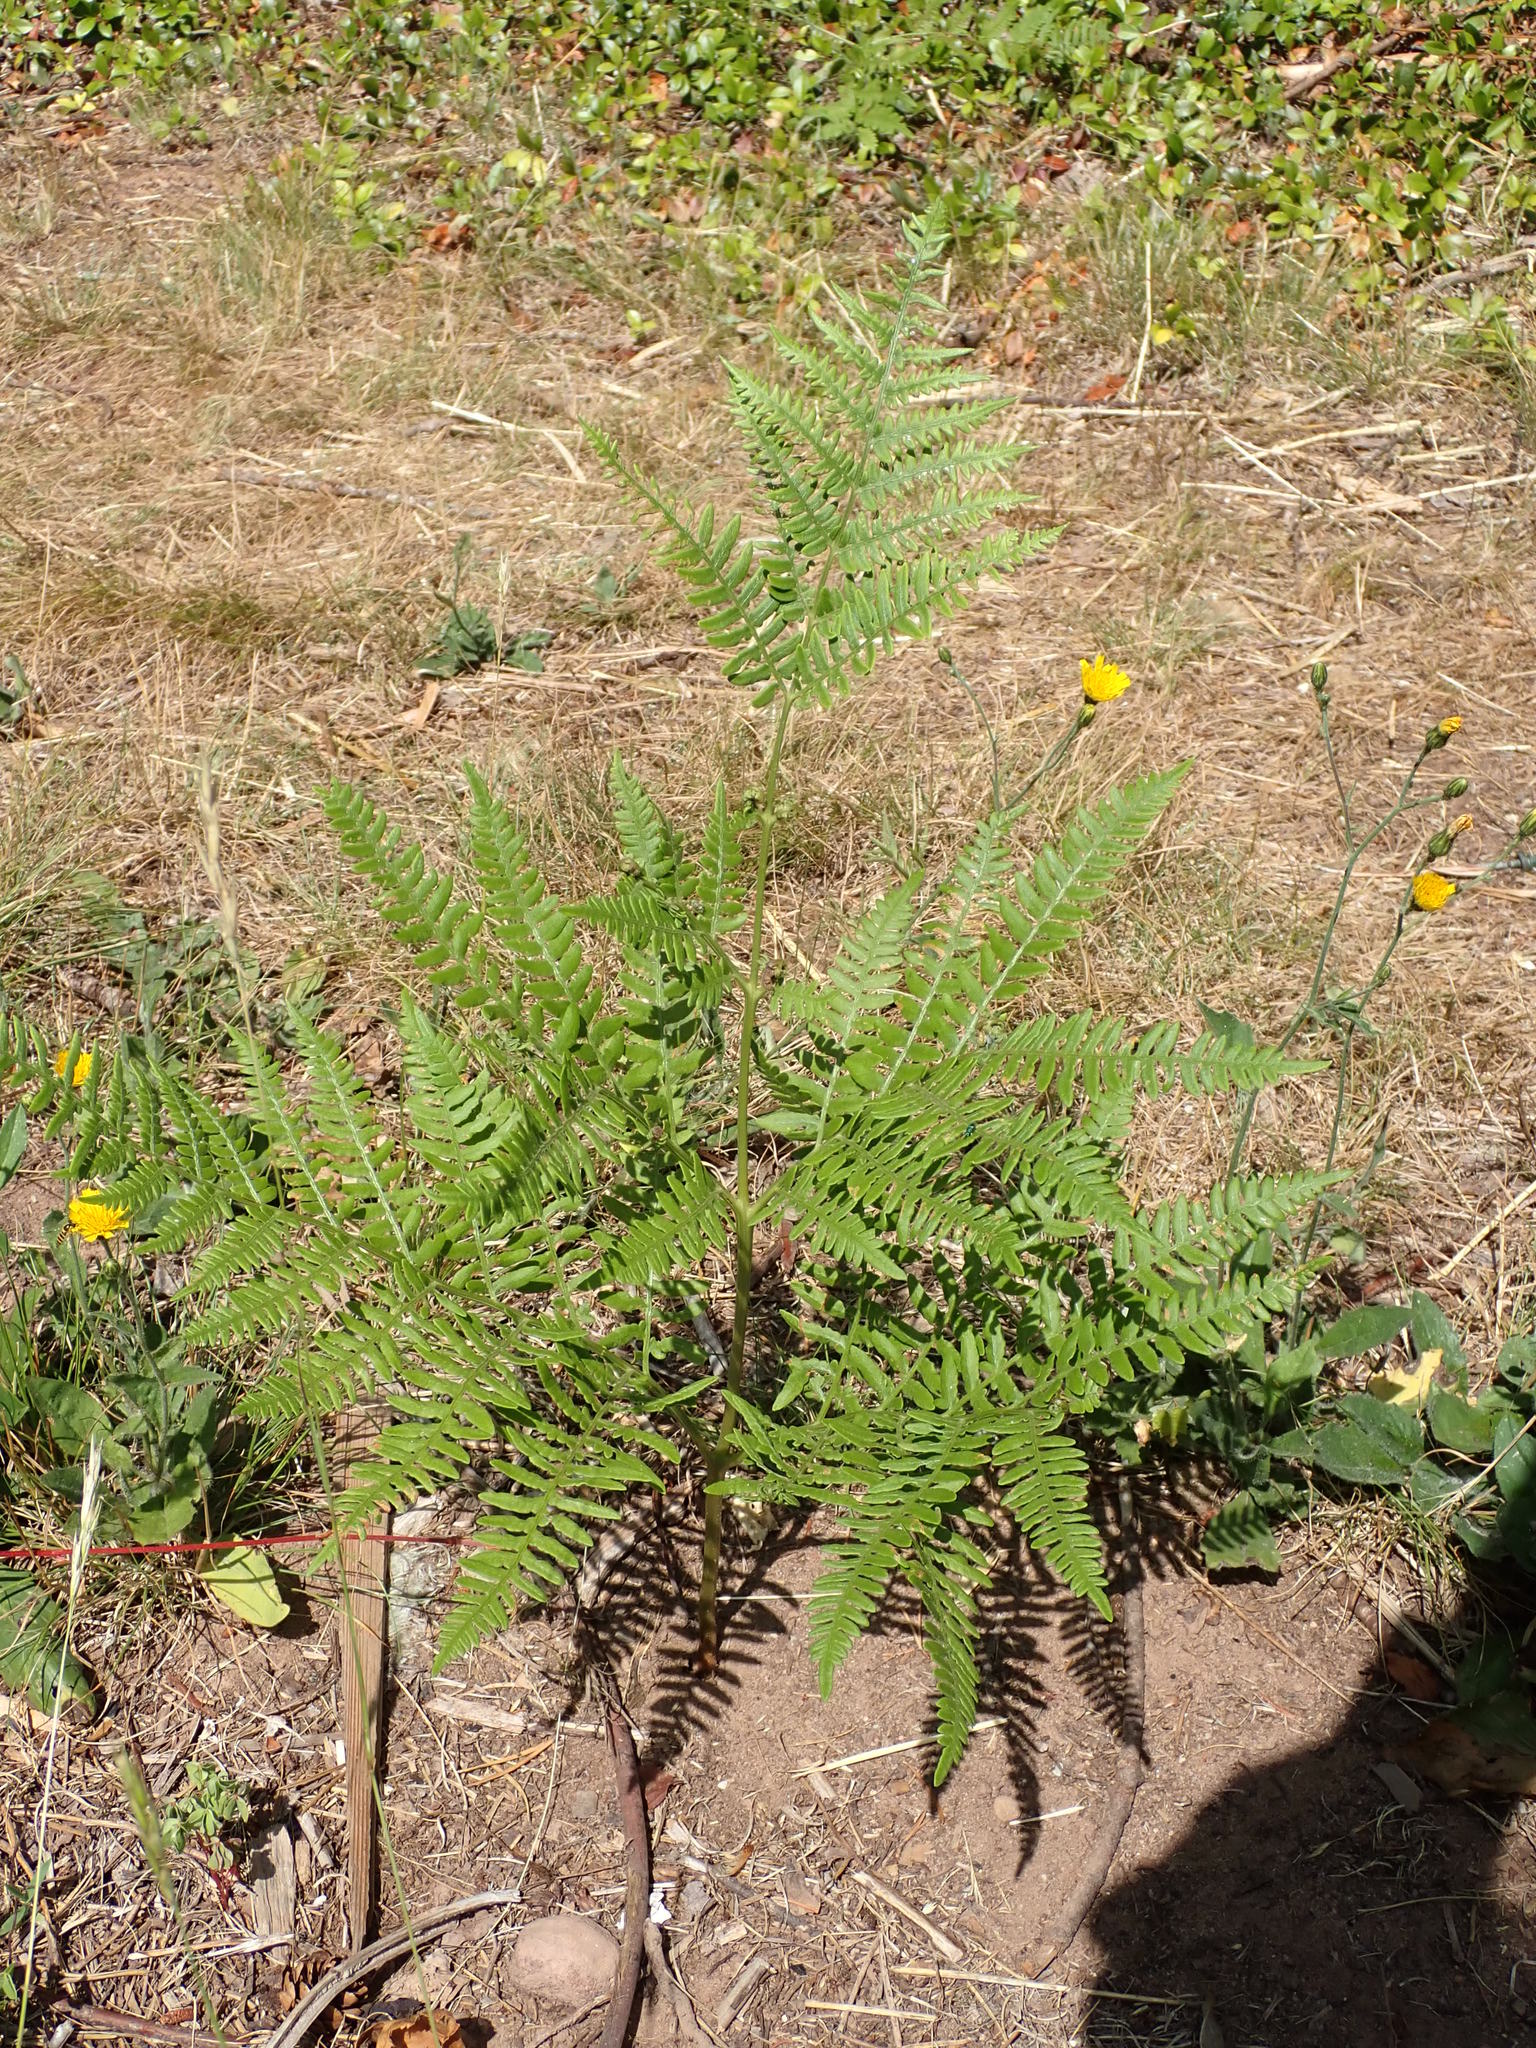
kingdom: Plantae
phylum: Tracheophyta
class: Polypodiopsida
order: Polypodiales
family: Dennstaedtiaceae
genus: Pteridium
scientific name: Pteridium aquilinum
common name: Bracken
